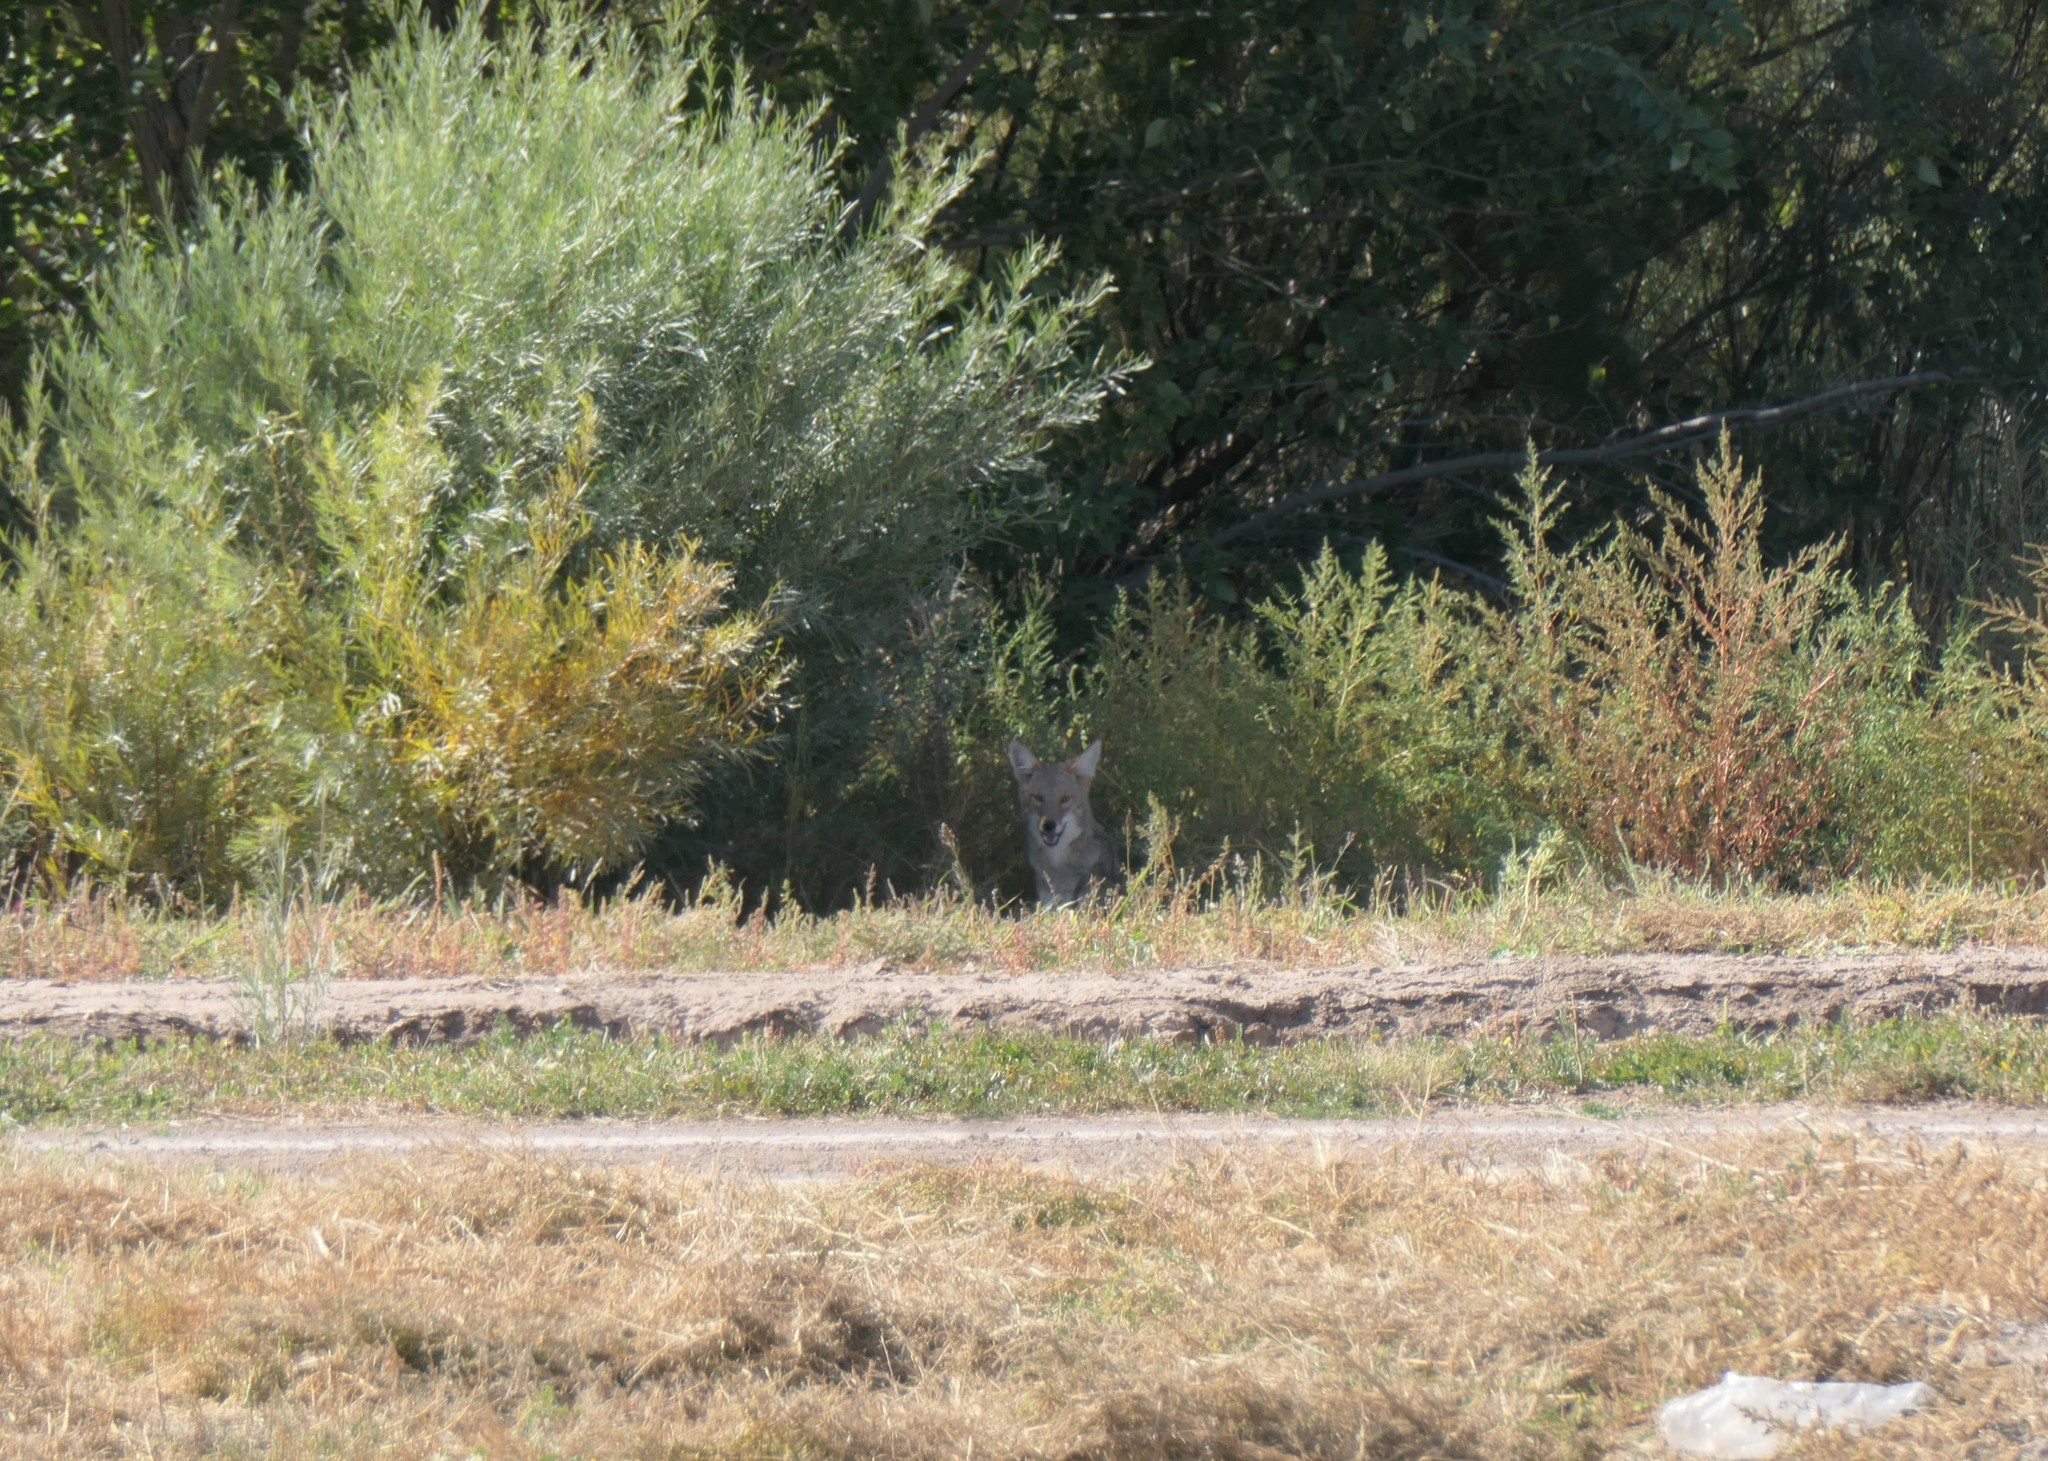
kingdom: Animalia
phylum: Chordata
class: Mammalia
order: Carnivora
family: Canidae
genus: Canis
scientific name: Canis latrans
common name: Coyote
